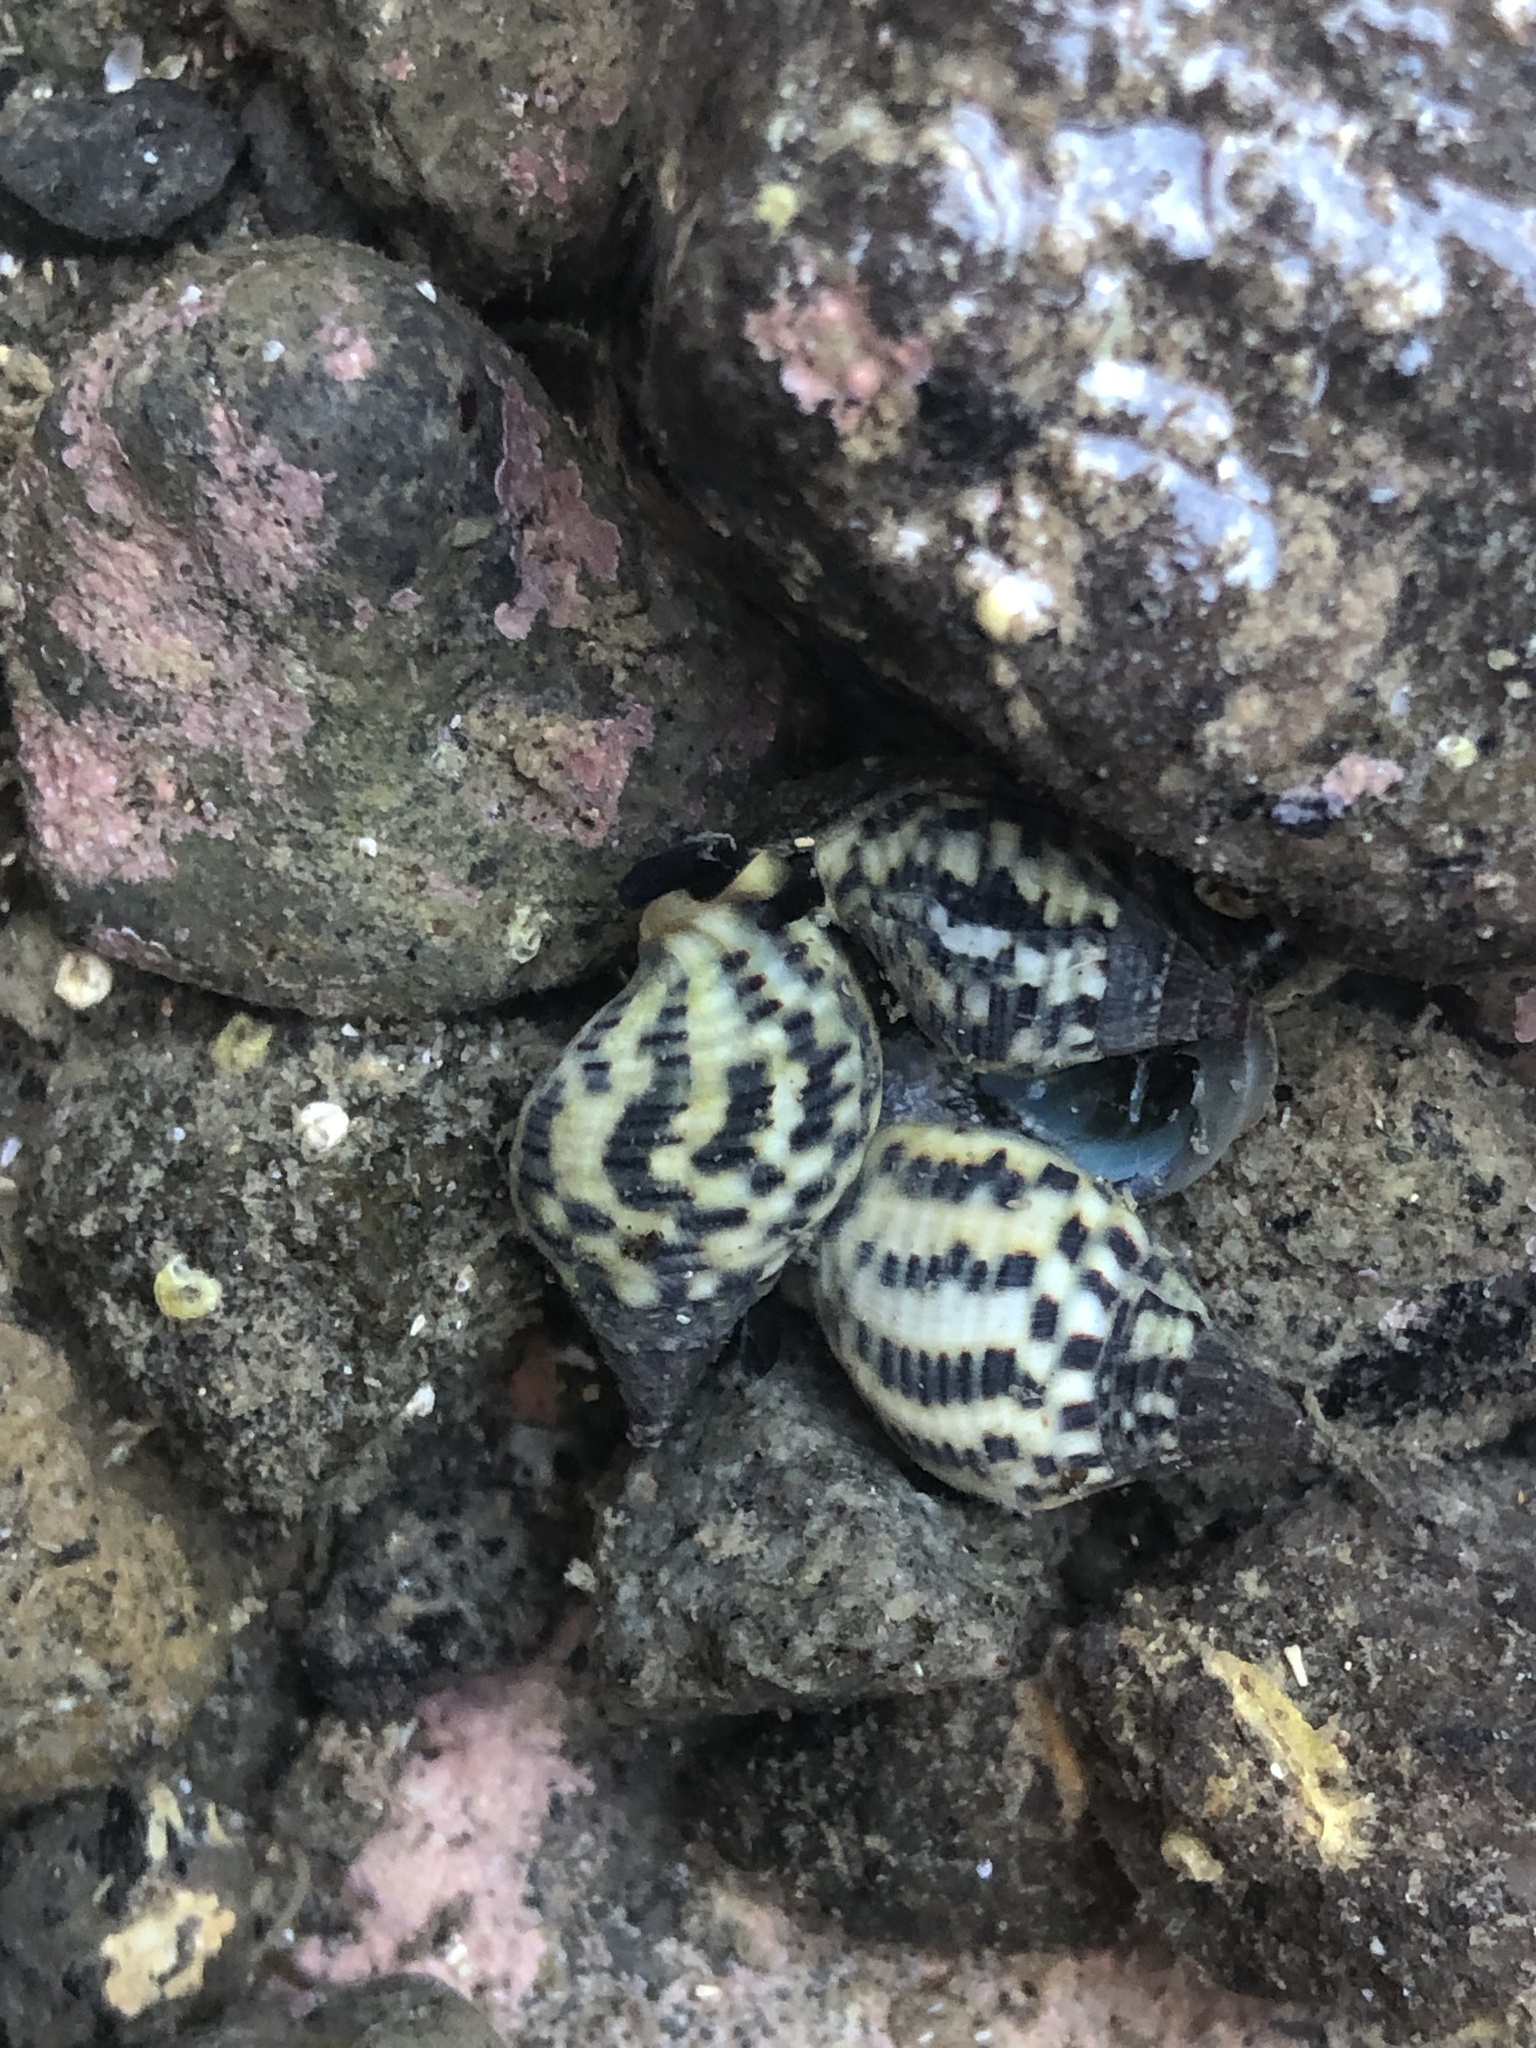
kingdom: Animalia
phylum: Mollusca
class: Gastropoda
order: Neogastropoda
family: Cominellidae
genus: Cominella
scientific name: Cominella maculosa
